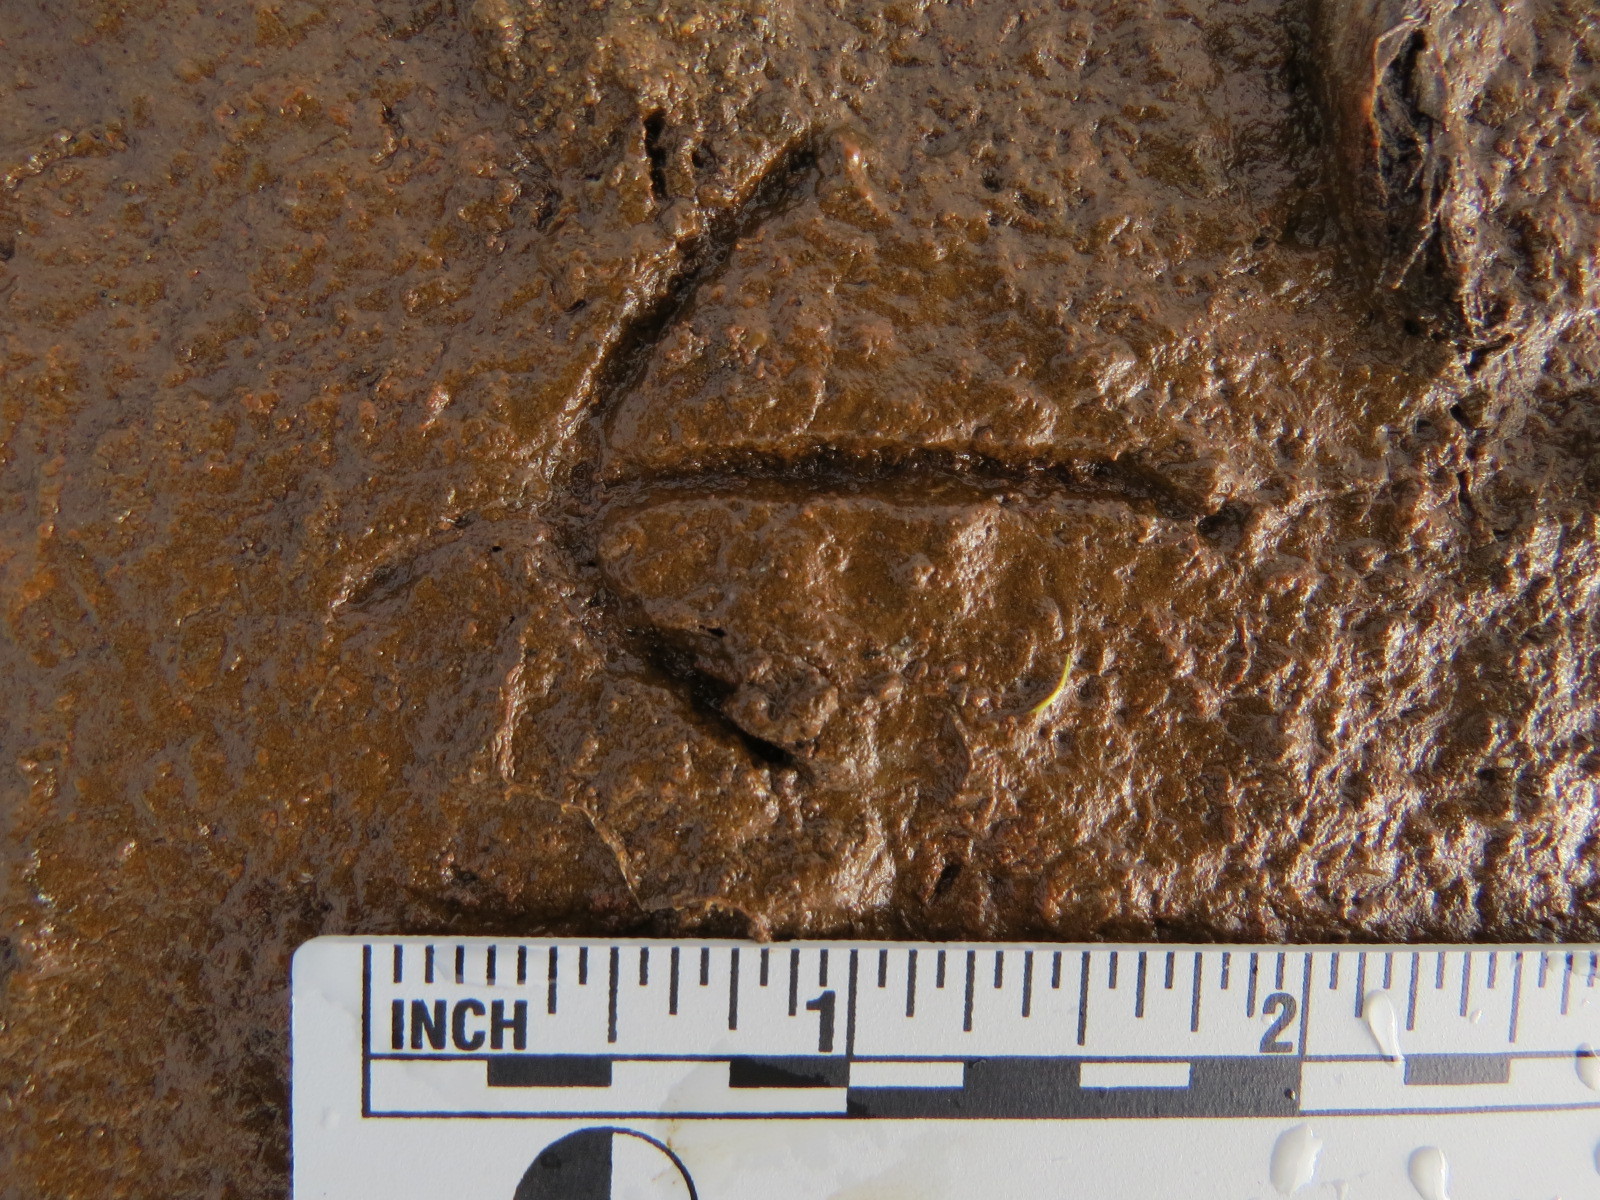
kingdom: Animalia
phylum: Chordata
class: Aves
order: Charadriiformes
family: Scolopacidae
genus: Gallinago
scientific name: Gallinago delicata
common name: Wilson's snipe
